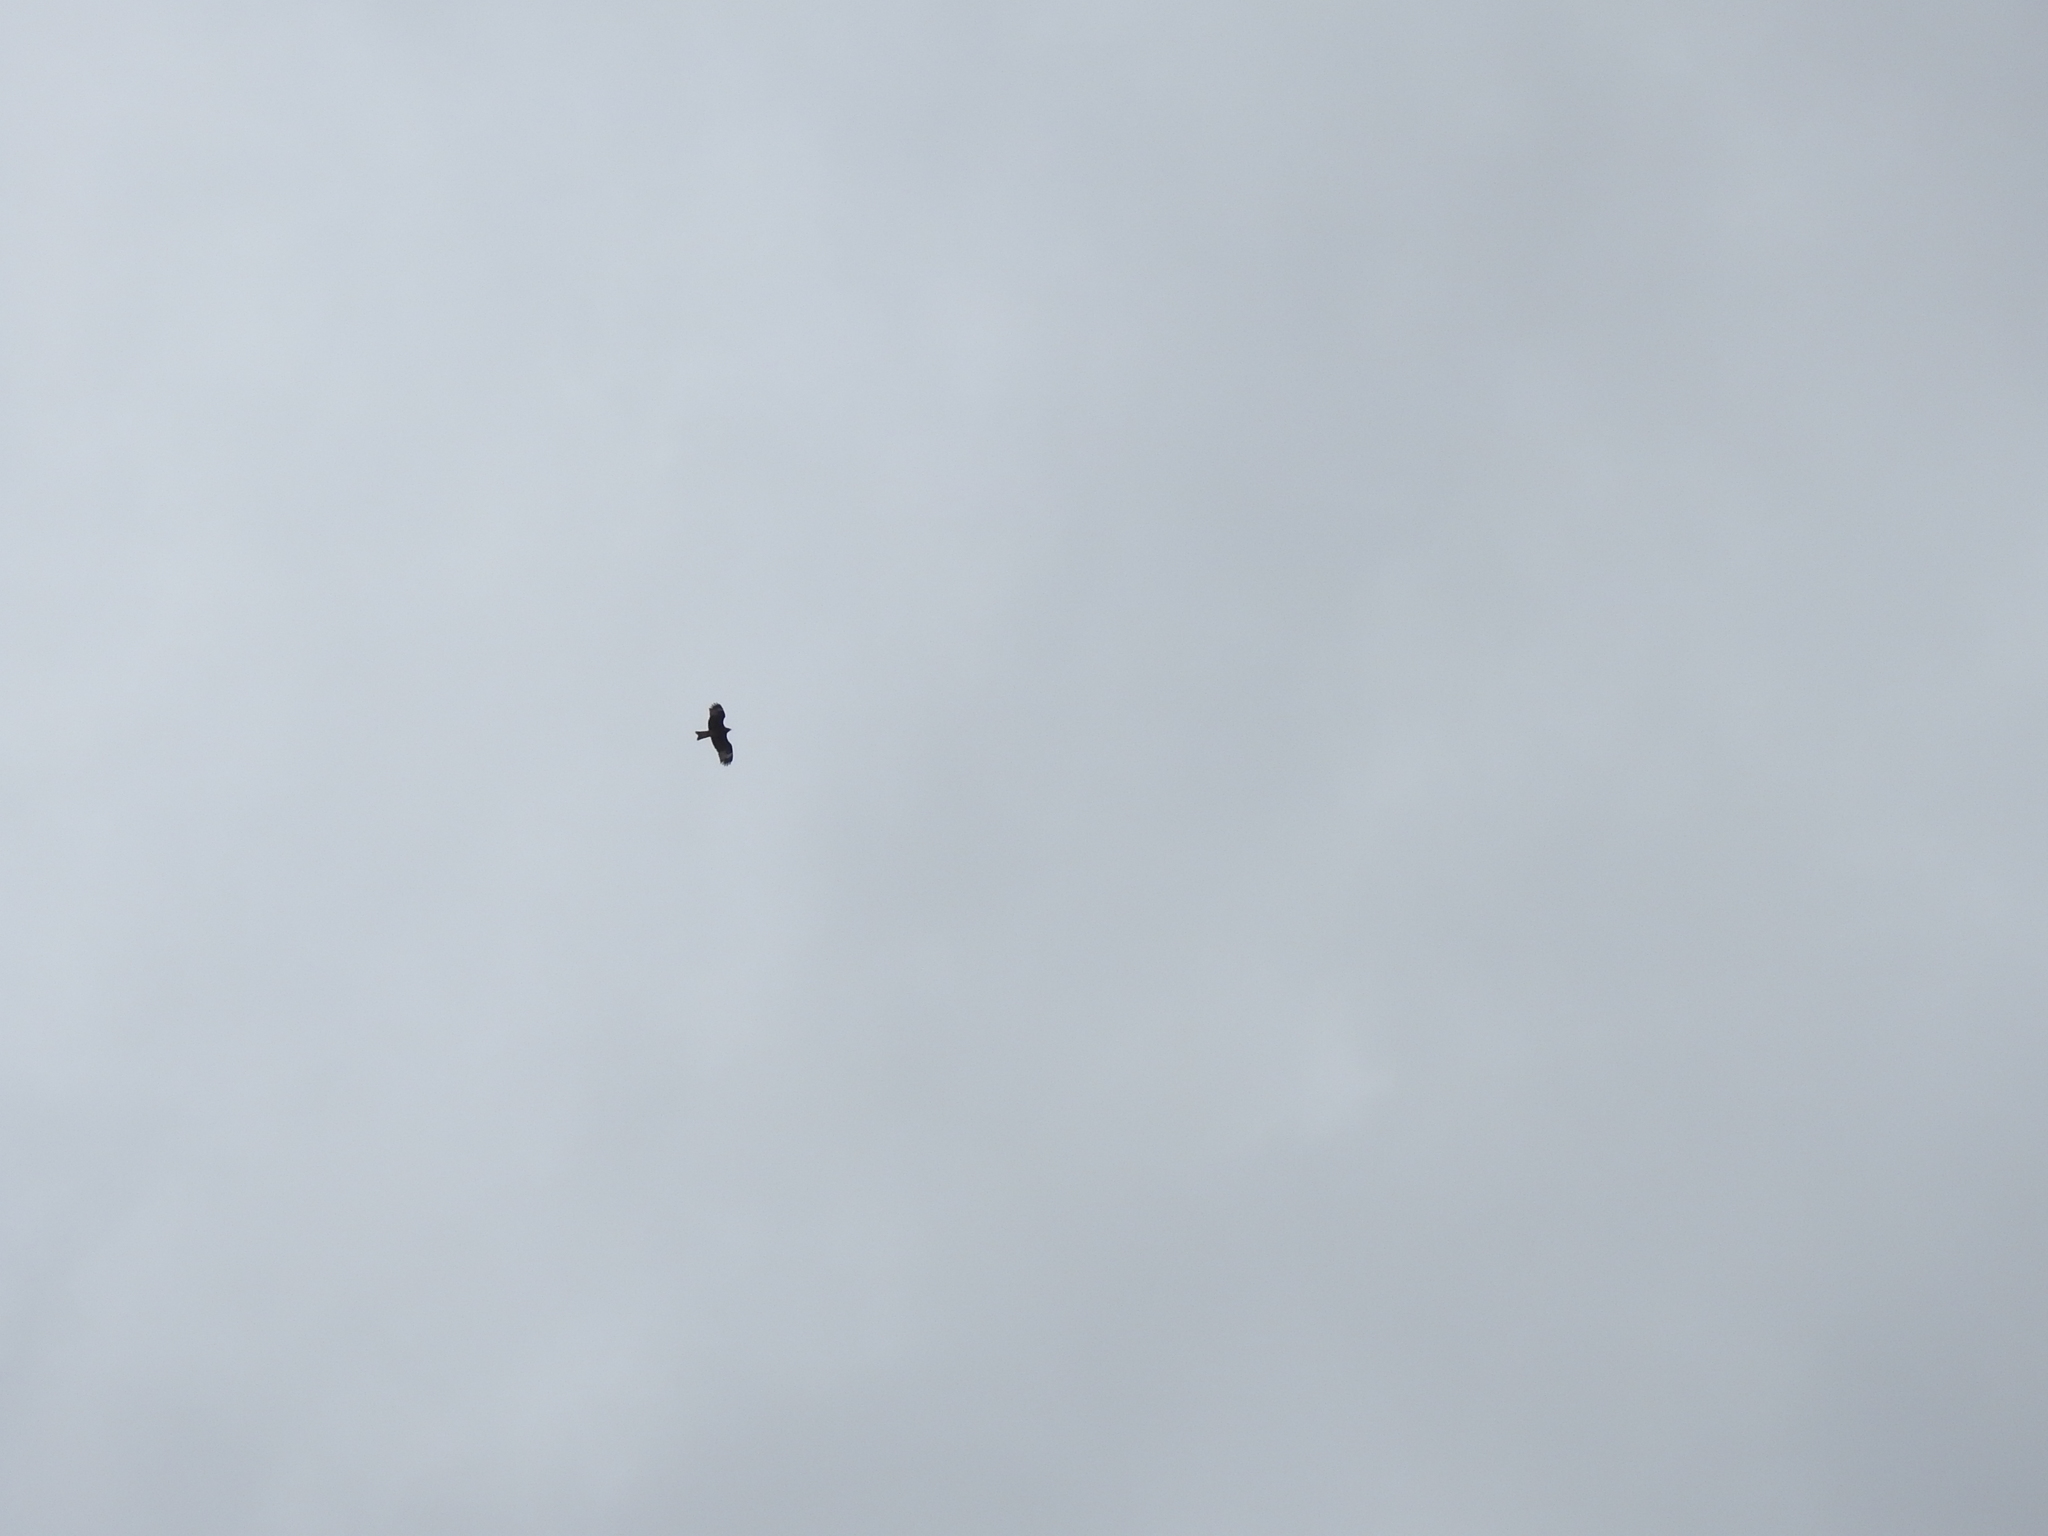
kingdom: Animalia
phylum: Chordata
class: Aves
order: Accipitriformes
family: Accipitridae
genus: Milvus
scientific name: Milvus migrans
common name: Black kite
